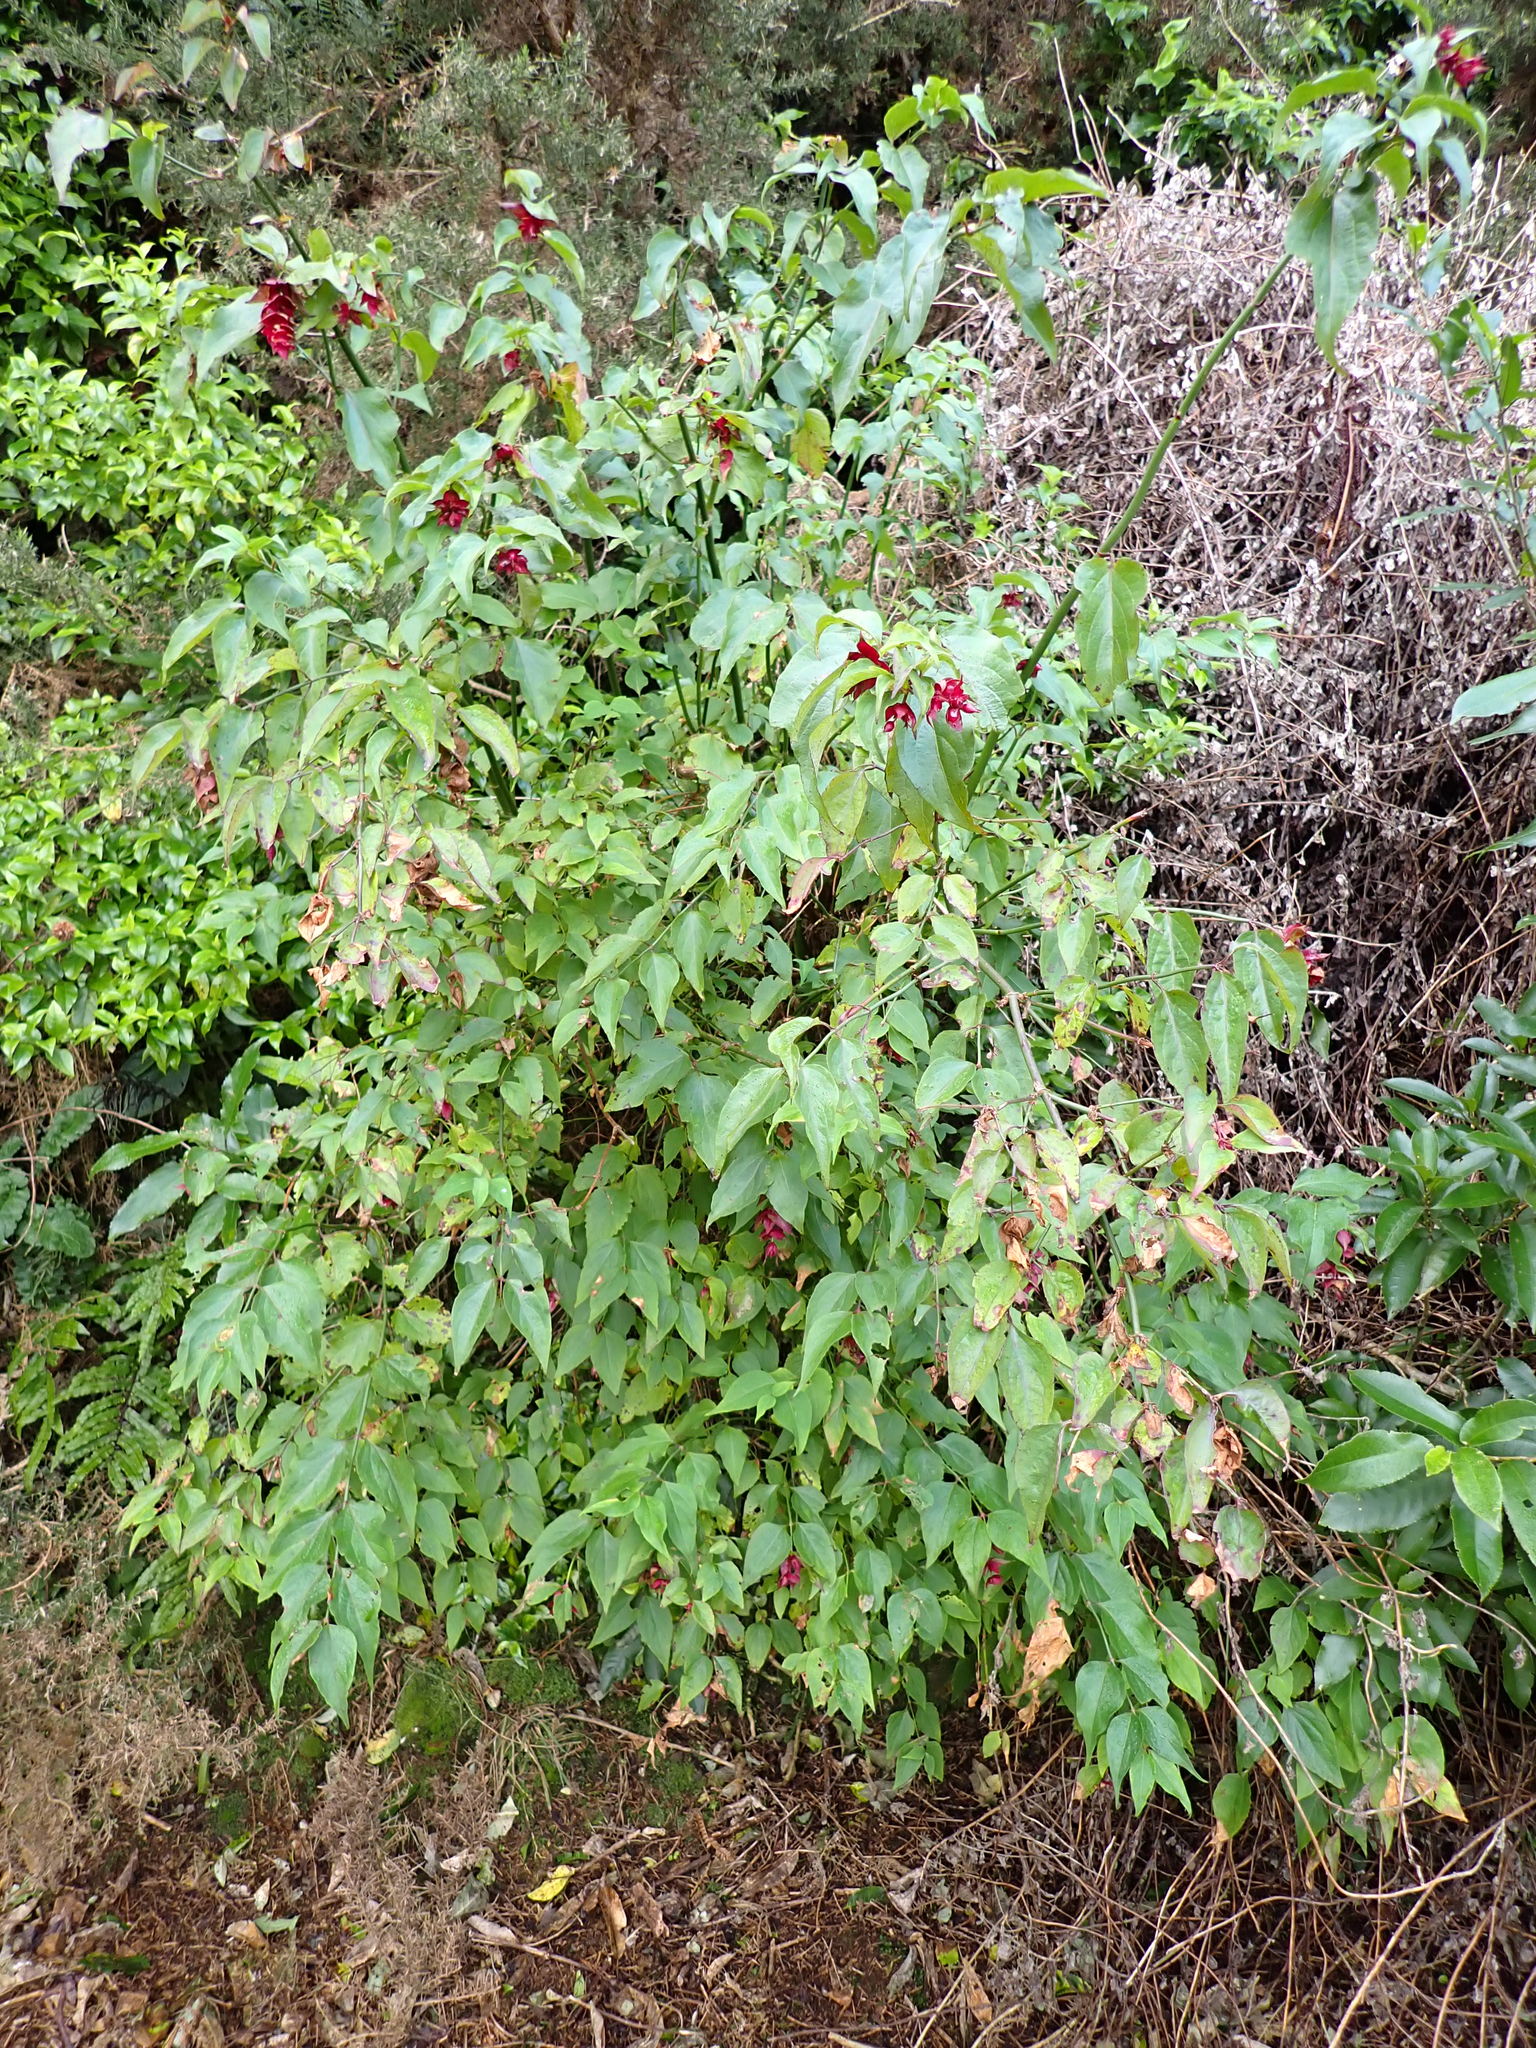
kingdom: Plantae
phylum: Tracheophyta
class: Magnoliopsida
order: Dipsacales
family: Caprifoliaceae
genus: Leycesteria
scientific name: Leycesteria formosa
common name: Himalayan honeysuckle
